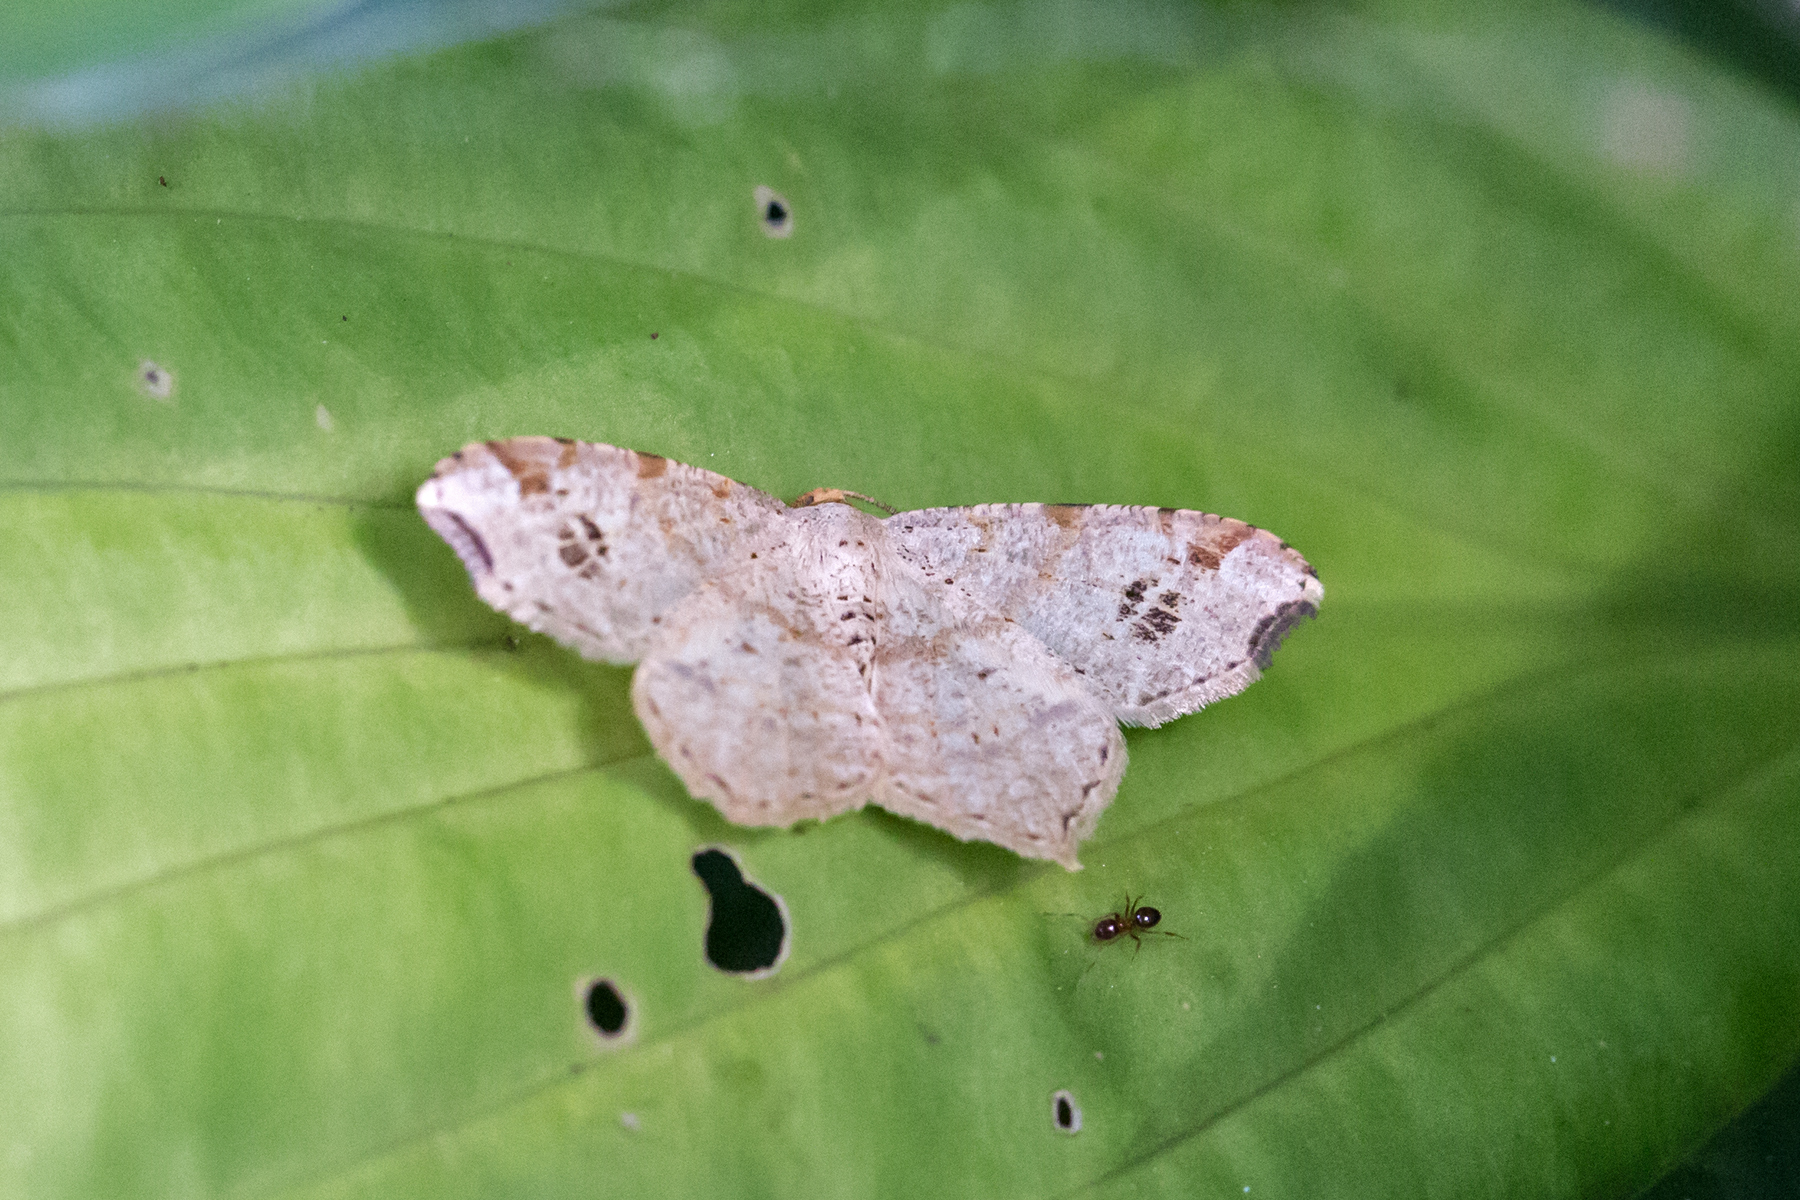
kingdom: Animalia
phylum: Arthropoda
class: Insecta
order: Lepidoptera
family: Geometridae
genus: Macaria
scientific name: Macaria aemulataria
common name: Common angle
